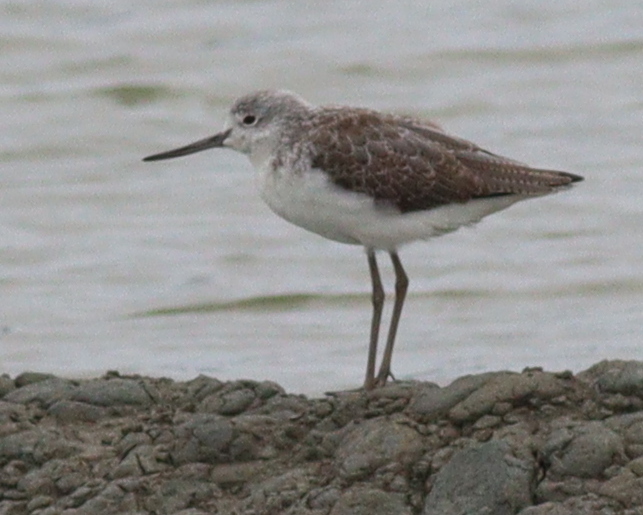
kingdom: Animalia
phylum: Chordata
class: Aves
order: Charadriiformes
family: Scolopacidae
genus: Tringa
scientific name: Tringa nebularia
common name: Common greenshank
